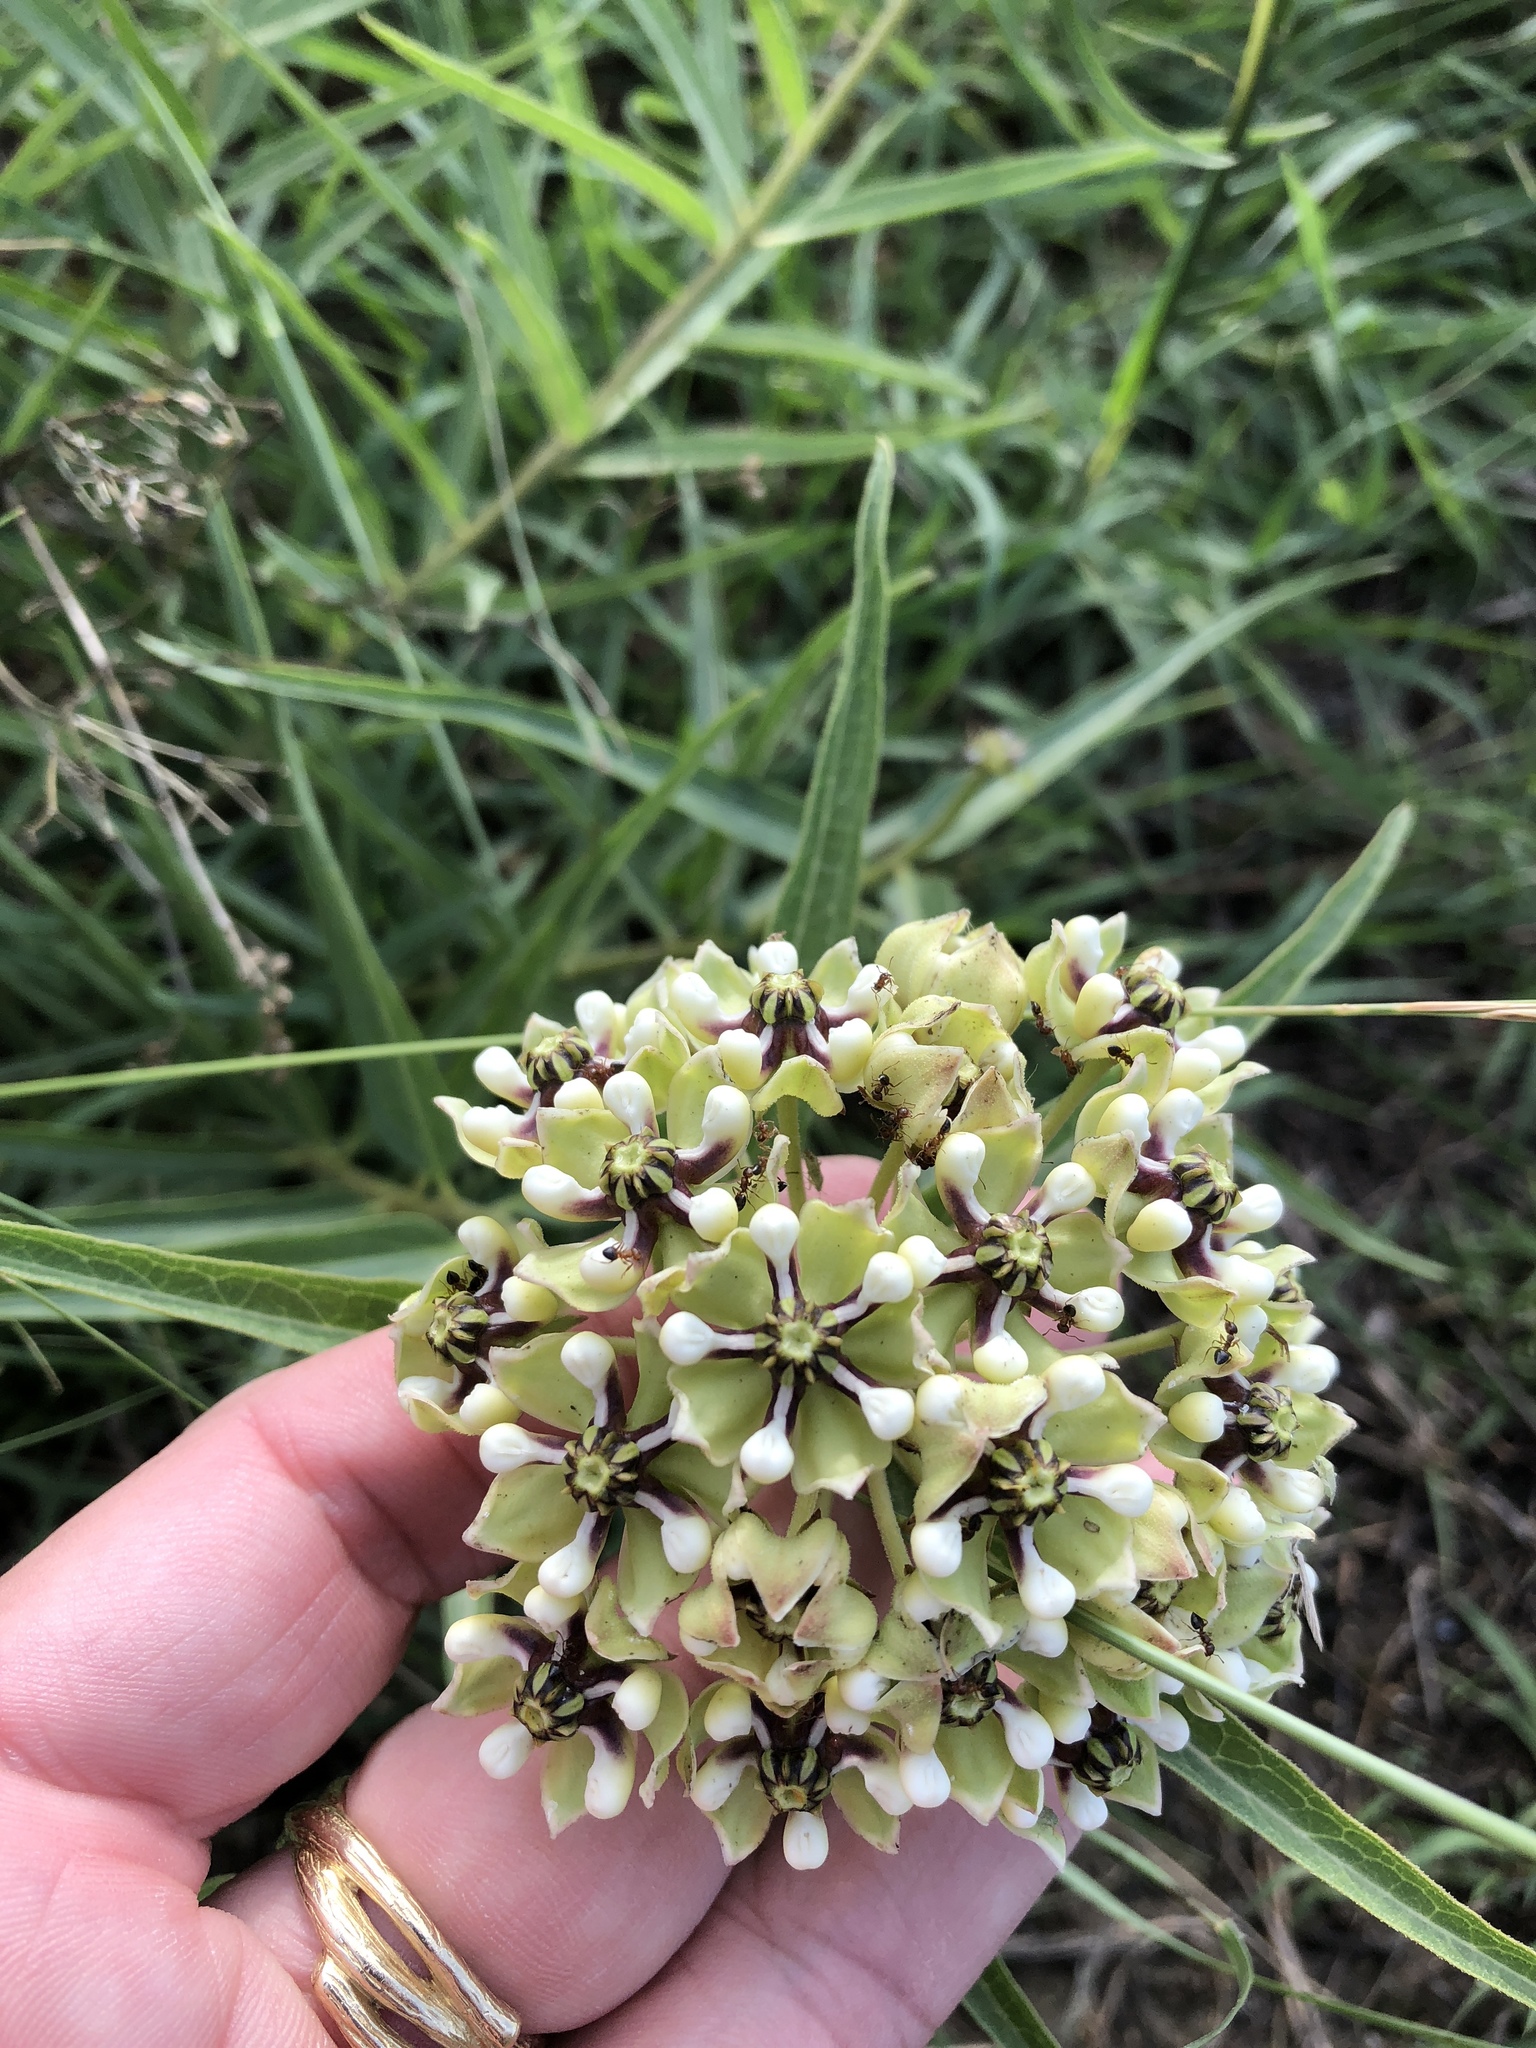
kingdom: Plantae
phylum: Tracheophyta
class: Magnoliopsida
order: Gentianales
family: Apocynaceae
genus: Asclepias
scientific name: Asclepias asperula
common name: Antelope horns
